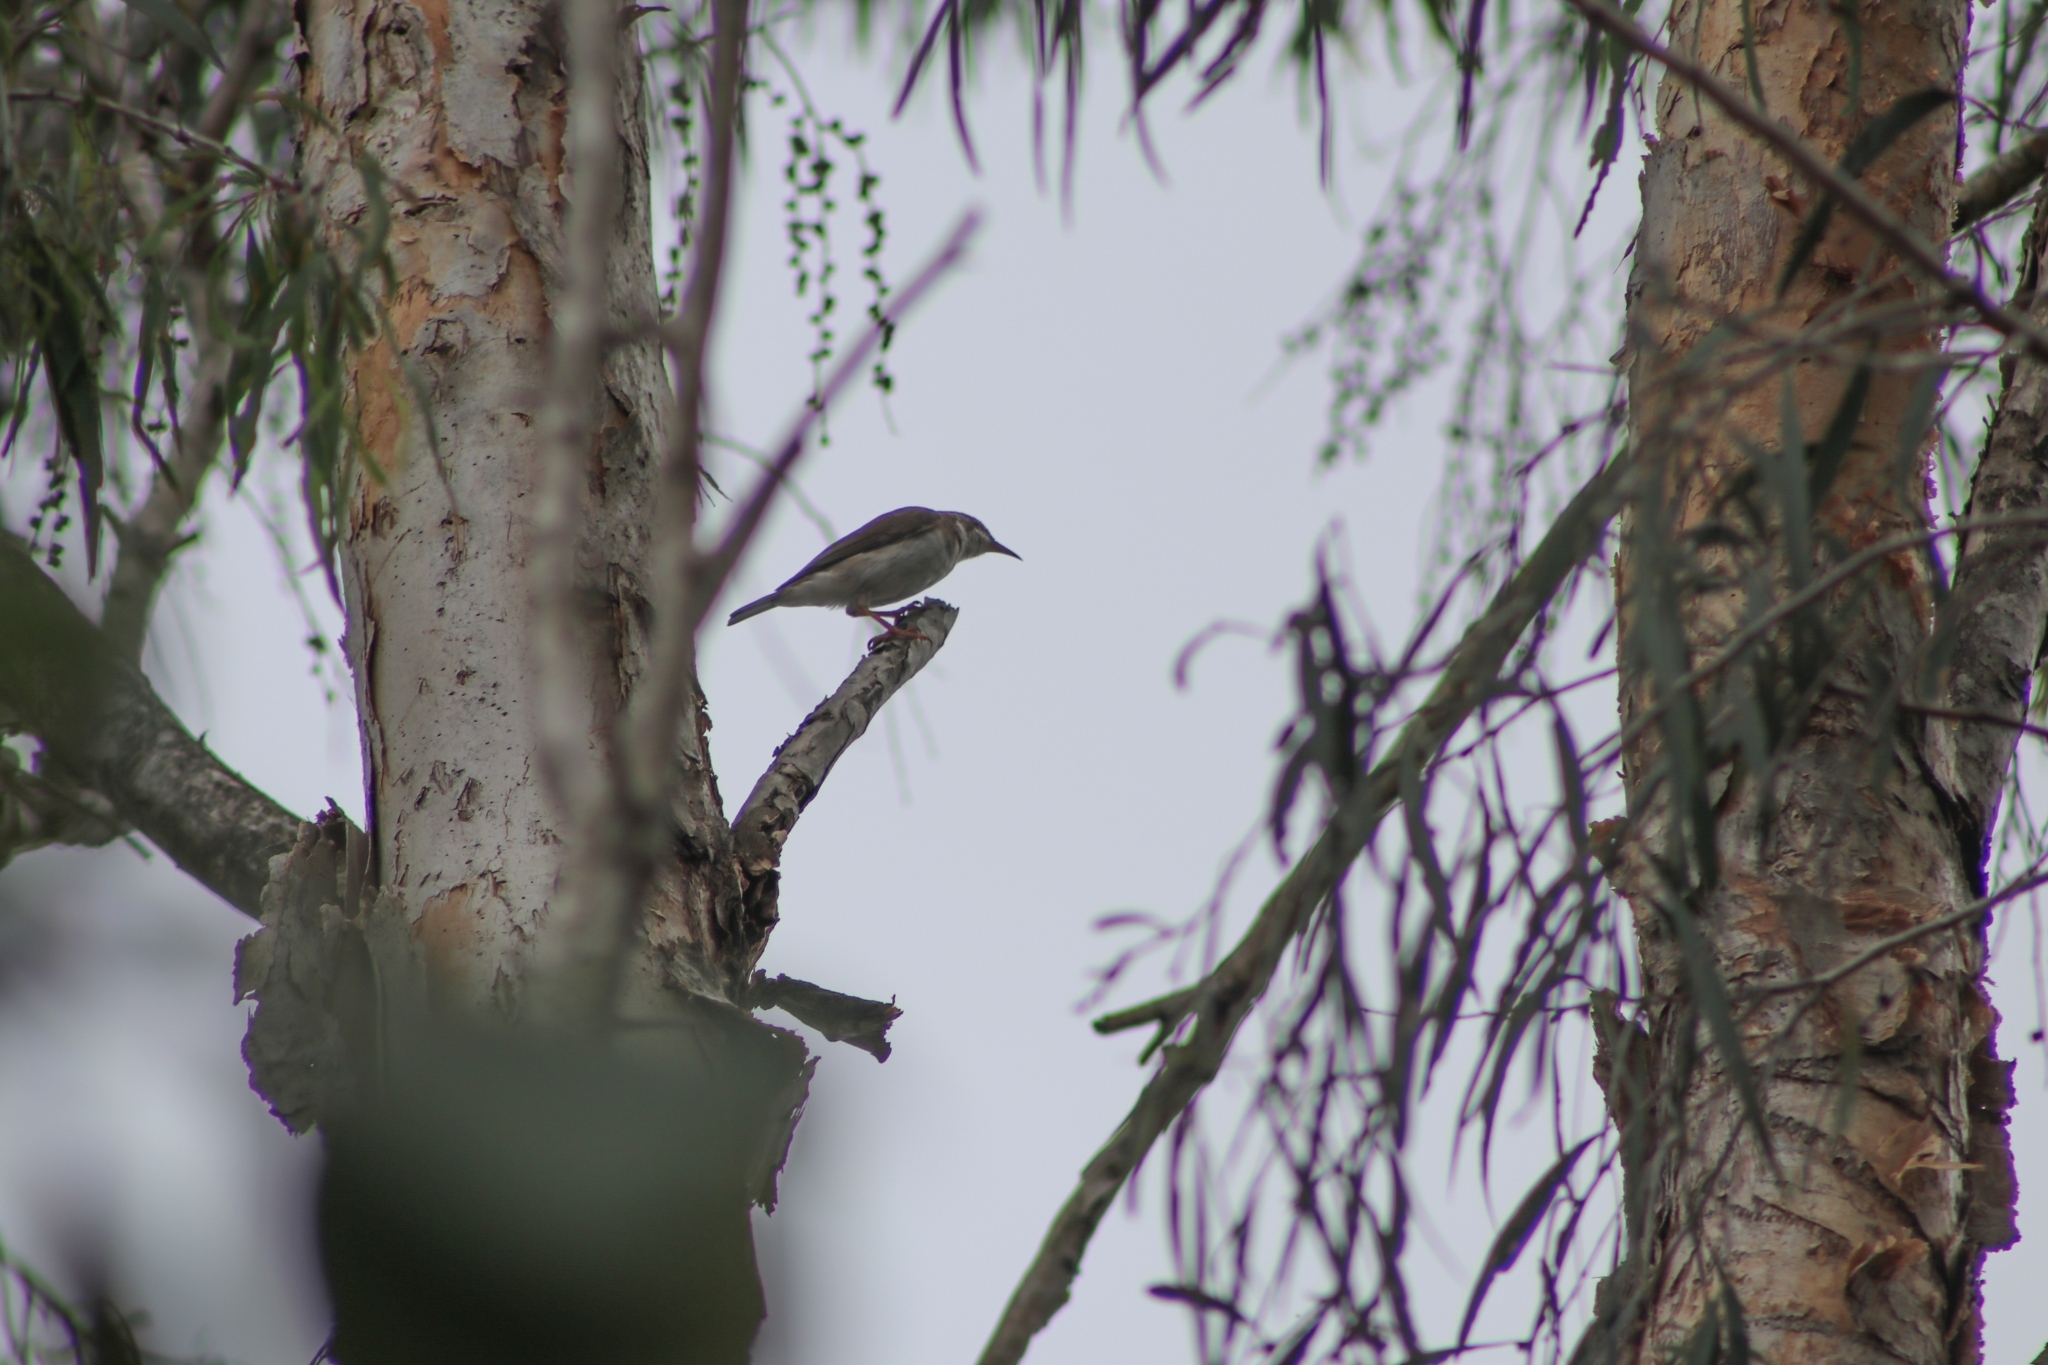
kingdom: Animalia
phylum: Chordata
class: Aves
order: Passeriformes
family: Meliphagidae
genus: Ramsayornis
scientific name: Ramsayornis modestus
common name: Brown-backed honeyeater
